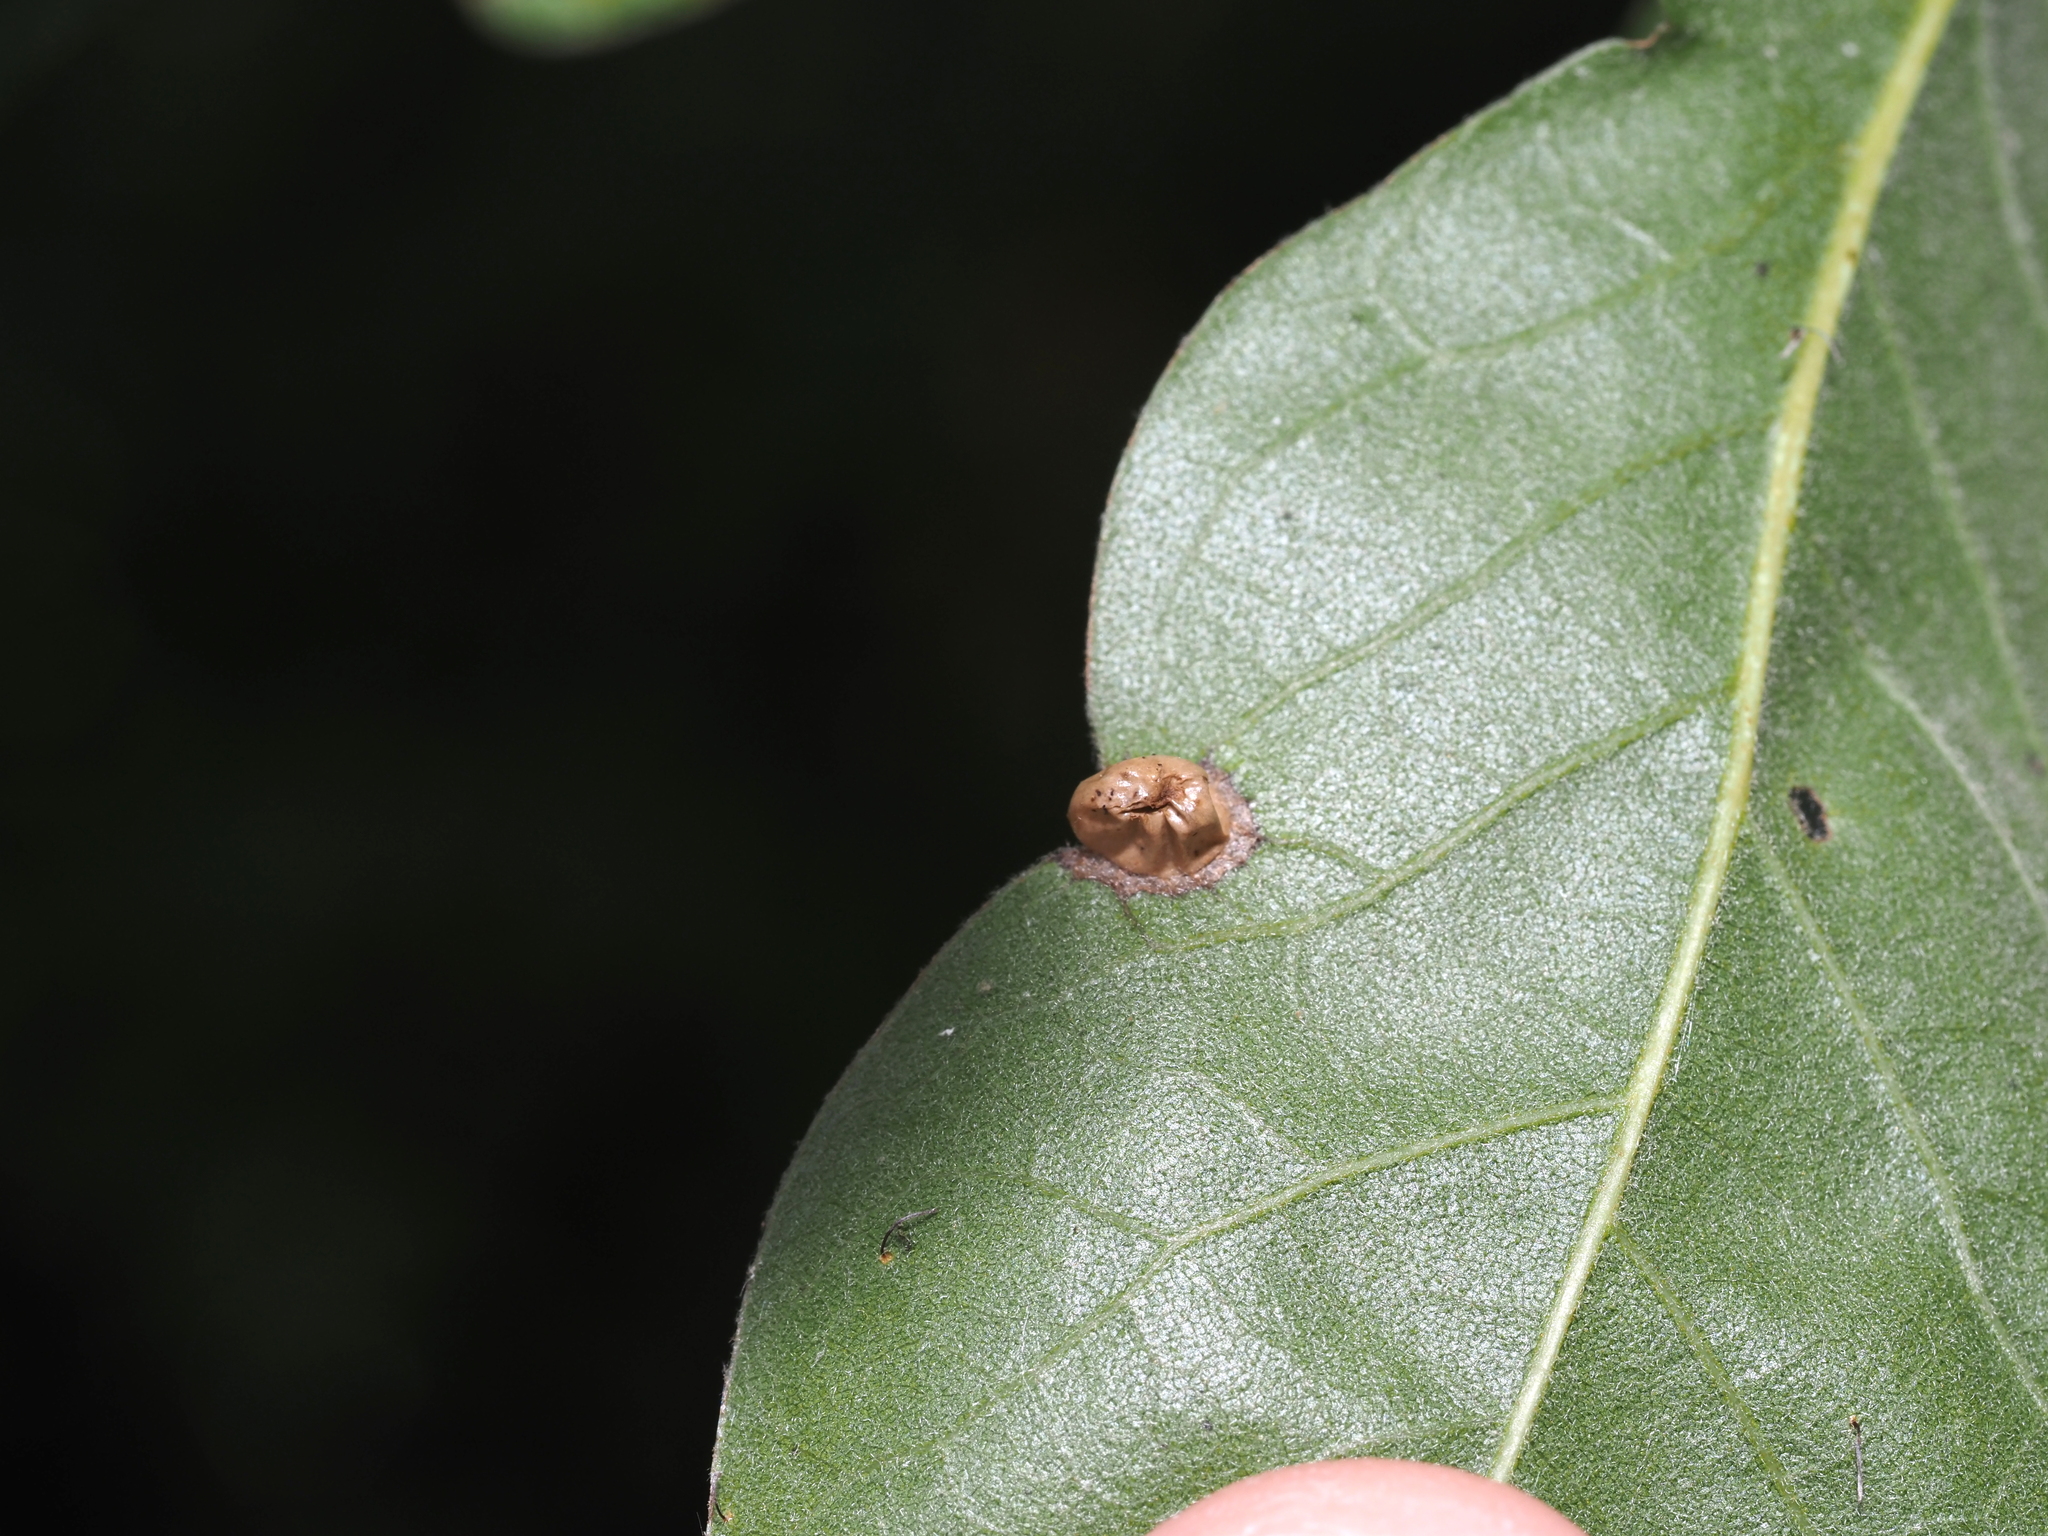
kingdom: Animalia
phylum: Arthropoda
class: Insecta
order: Hymenoptera
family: Cynipidae
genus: Dryocosmus
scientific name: Dryocosmus
